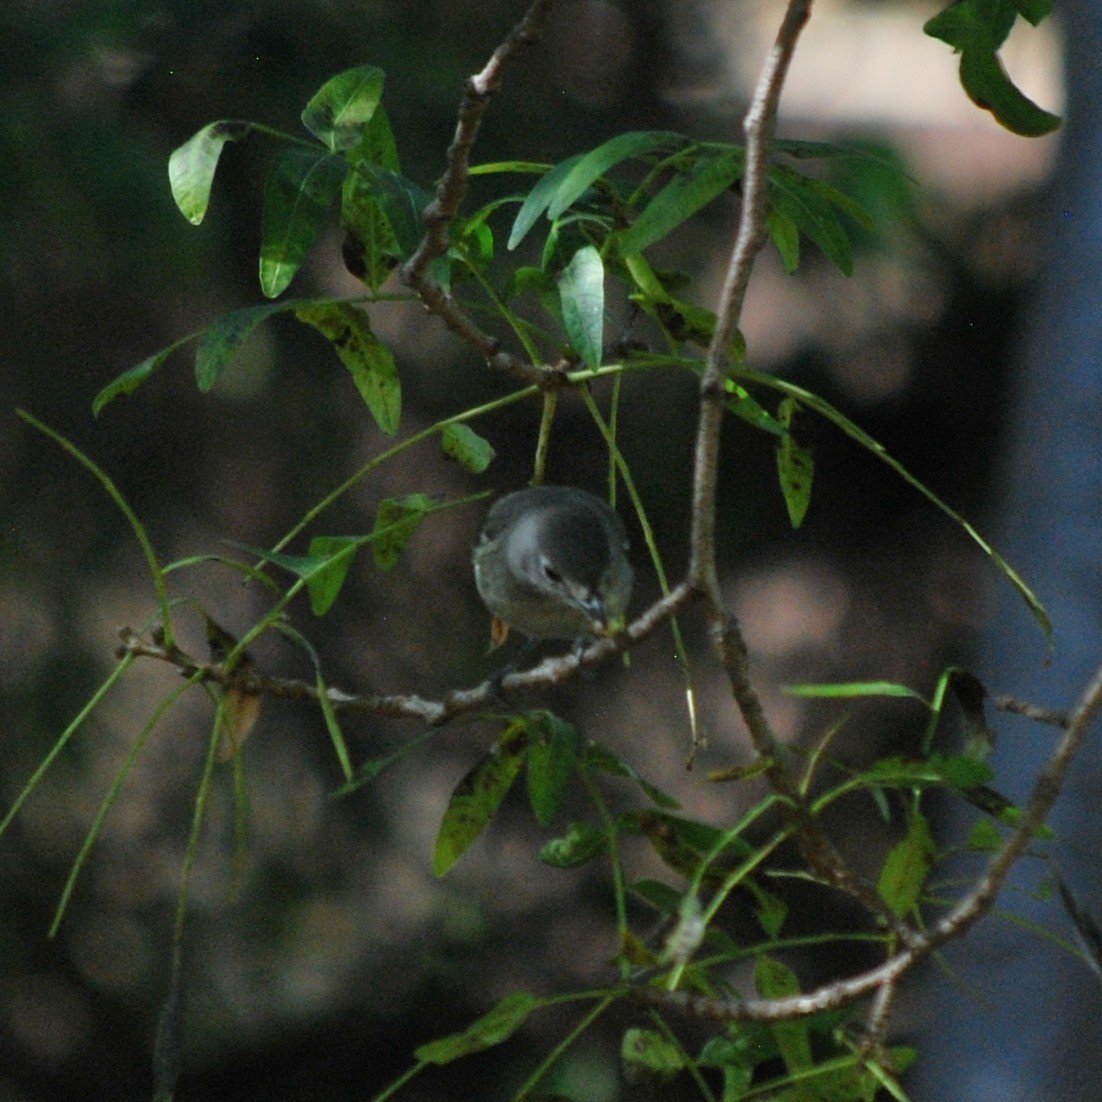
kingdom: Animalia
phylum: Chordata
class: Aves
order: Passeriformes
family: Vireonidae
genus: Vireo
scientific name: Vireo plumbeus
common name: Plumbeous vireo
